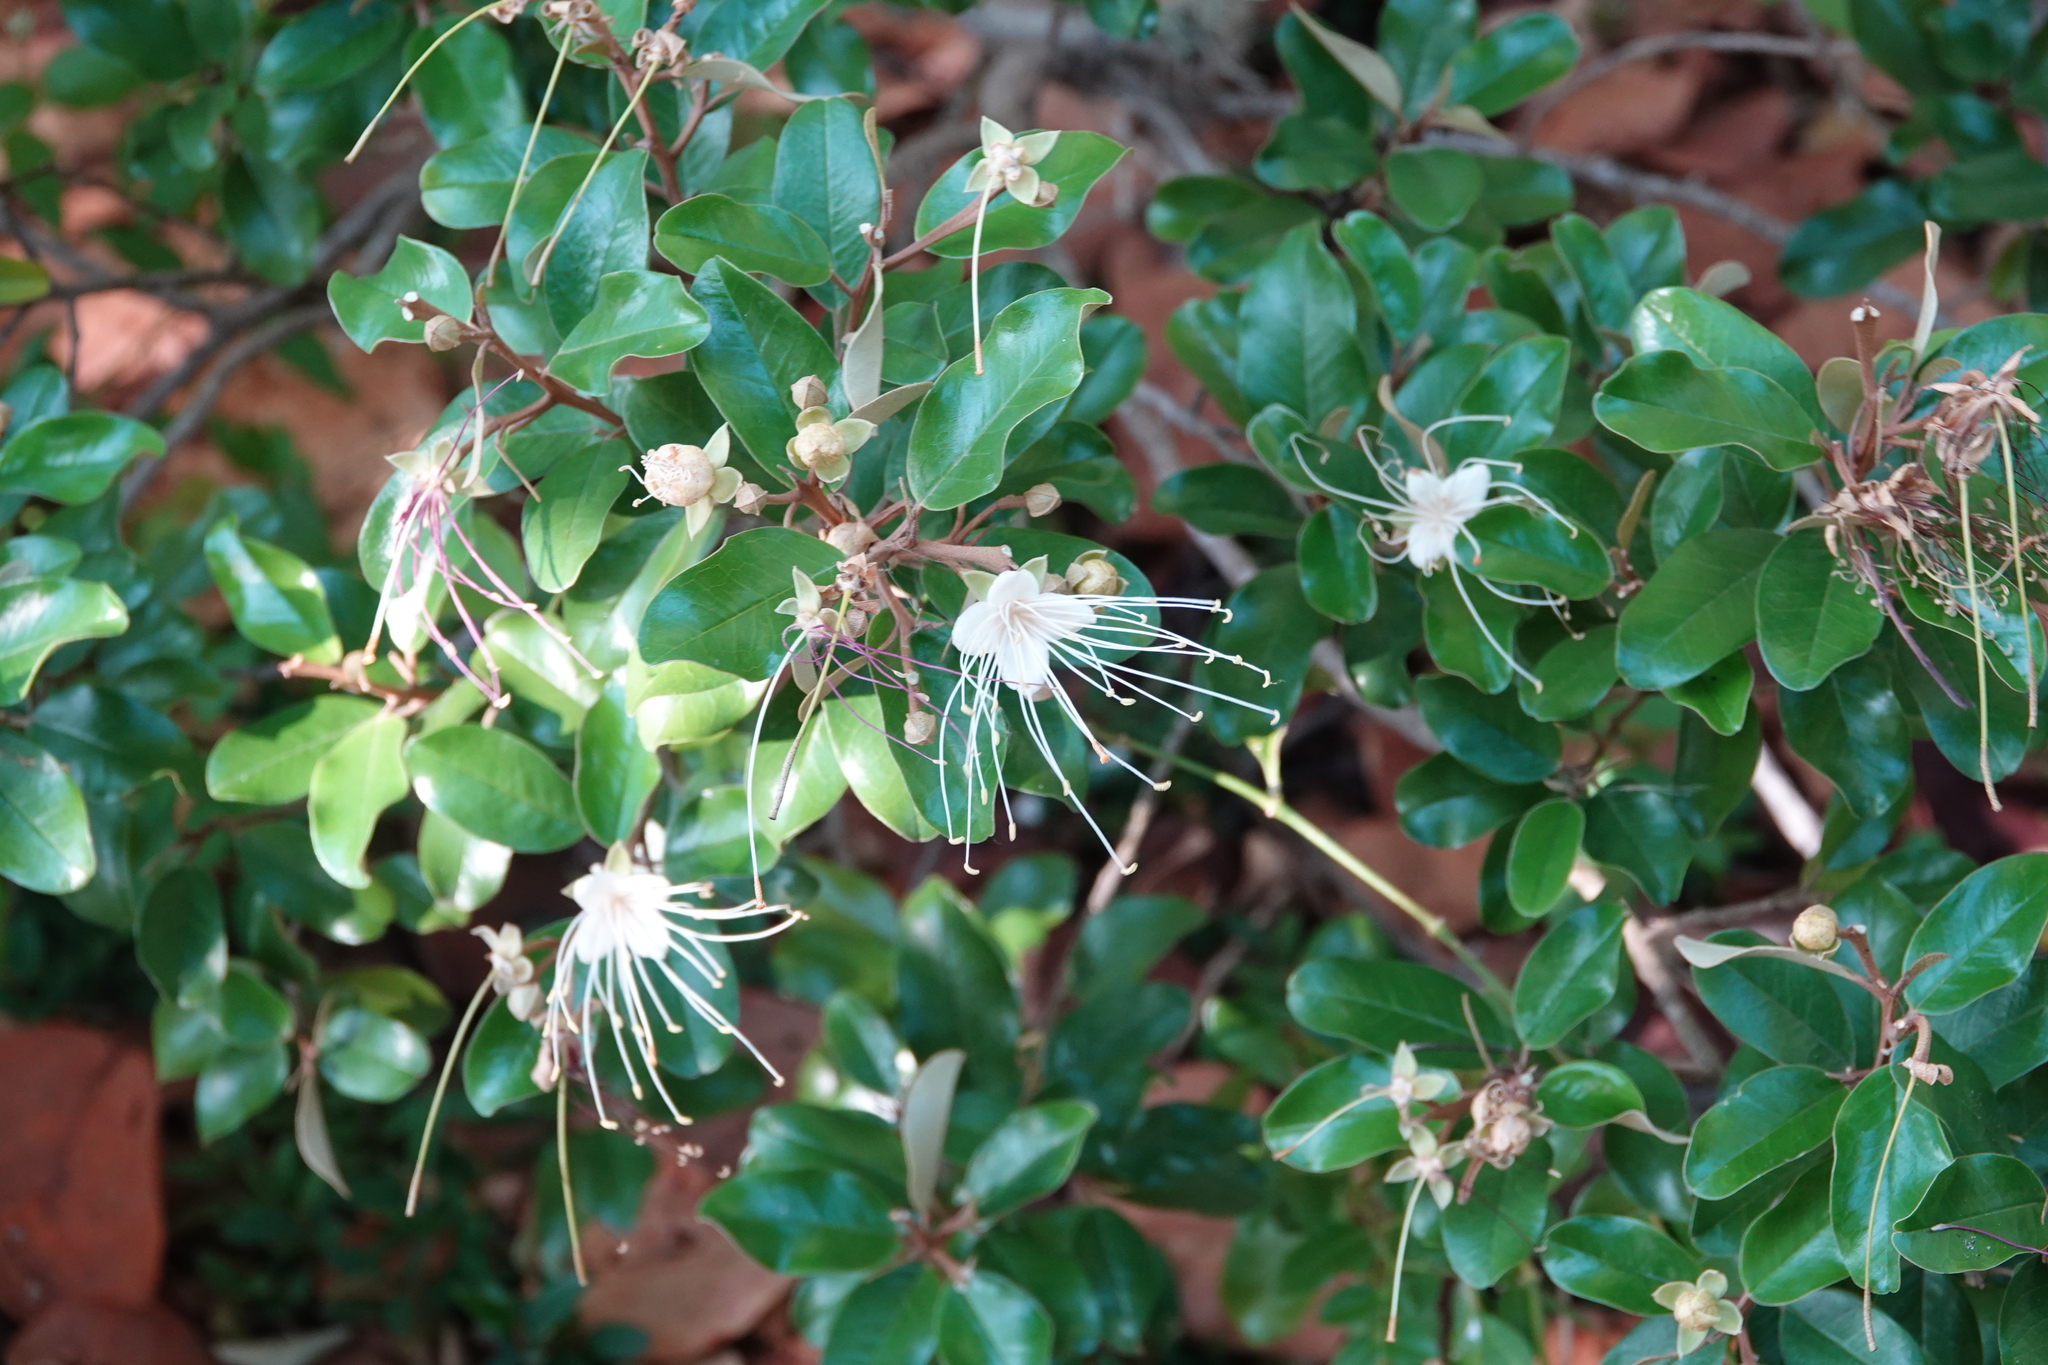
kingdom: Plantae
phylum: Tracheophyta
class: Magnoliopsida
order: Brassicales
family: Capparaceae
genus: Quadrella
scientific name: Quadrella cynophallophora
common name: Black willow
